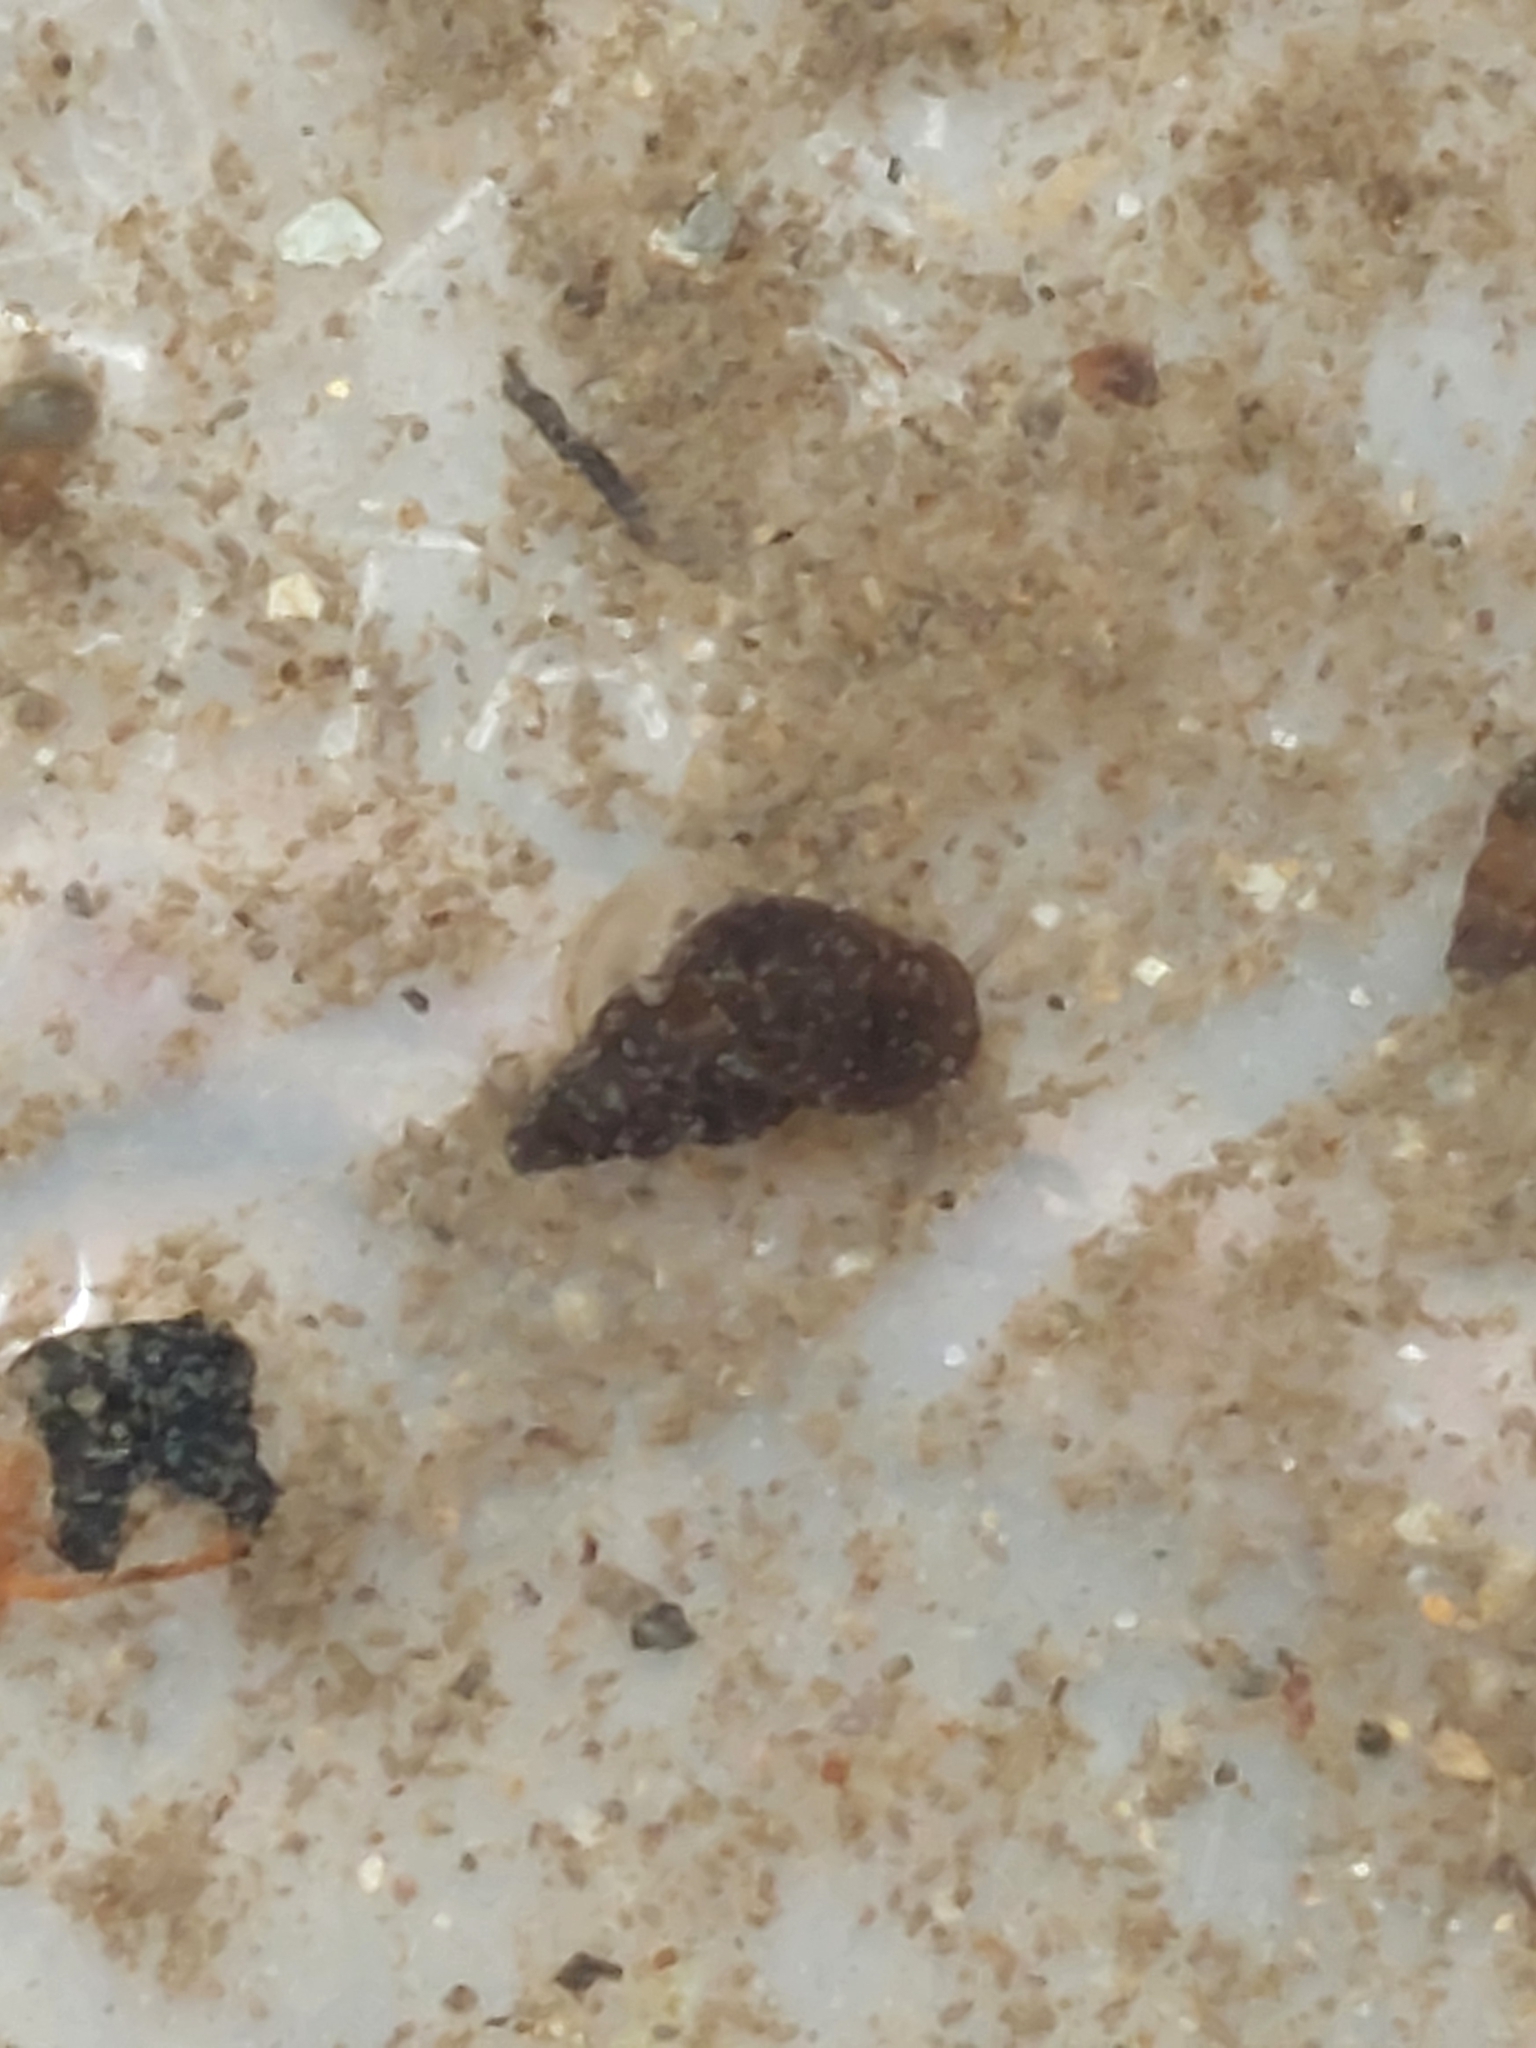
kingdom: Animalia
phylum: Mollusca
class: Gastropoda
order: Littorinimorpha
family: Tateidae
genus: Potamopyrgus
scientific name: Potamopyrgus antipodarum
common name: Jenkins' spire snail
